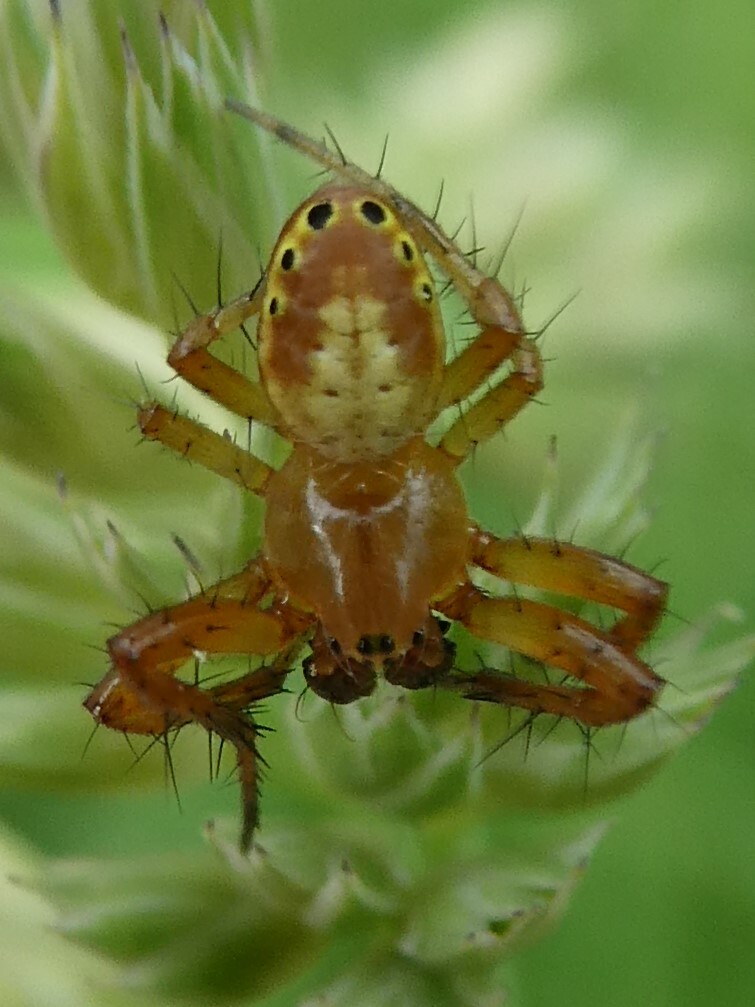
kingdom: Animalia
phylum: Arthropoda
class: Arachnida
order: Araneae
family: Araneidae
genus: Araniella
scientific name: Araniella displicata
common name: Sixspotted orb weaver
